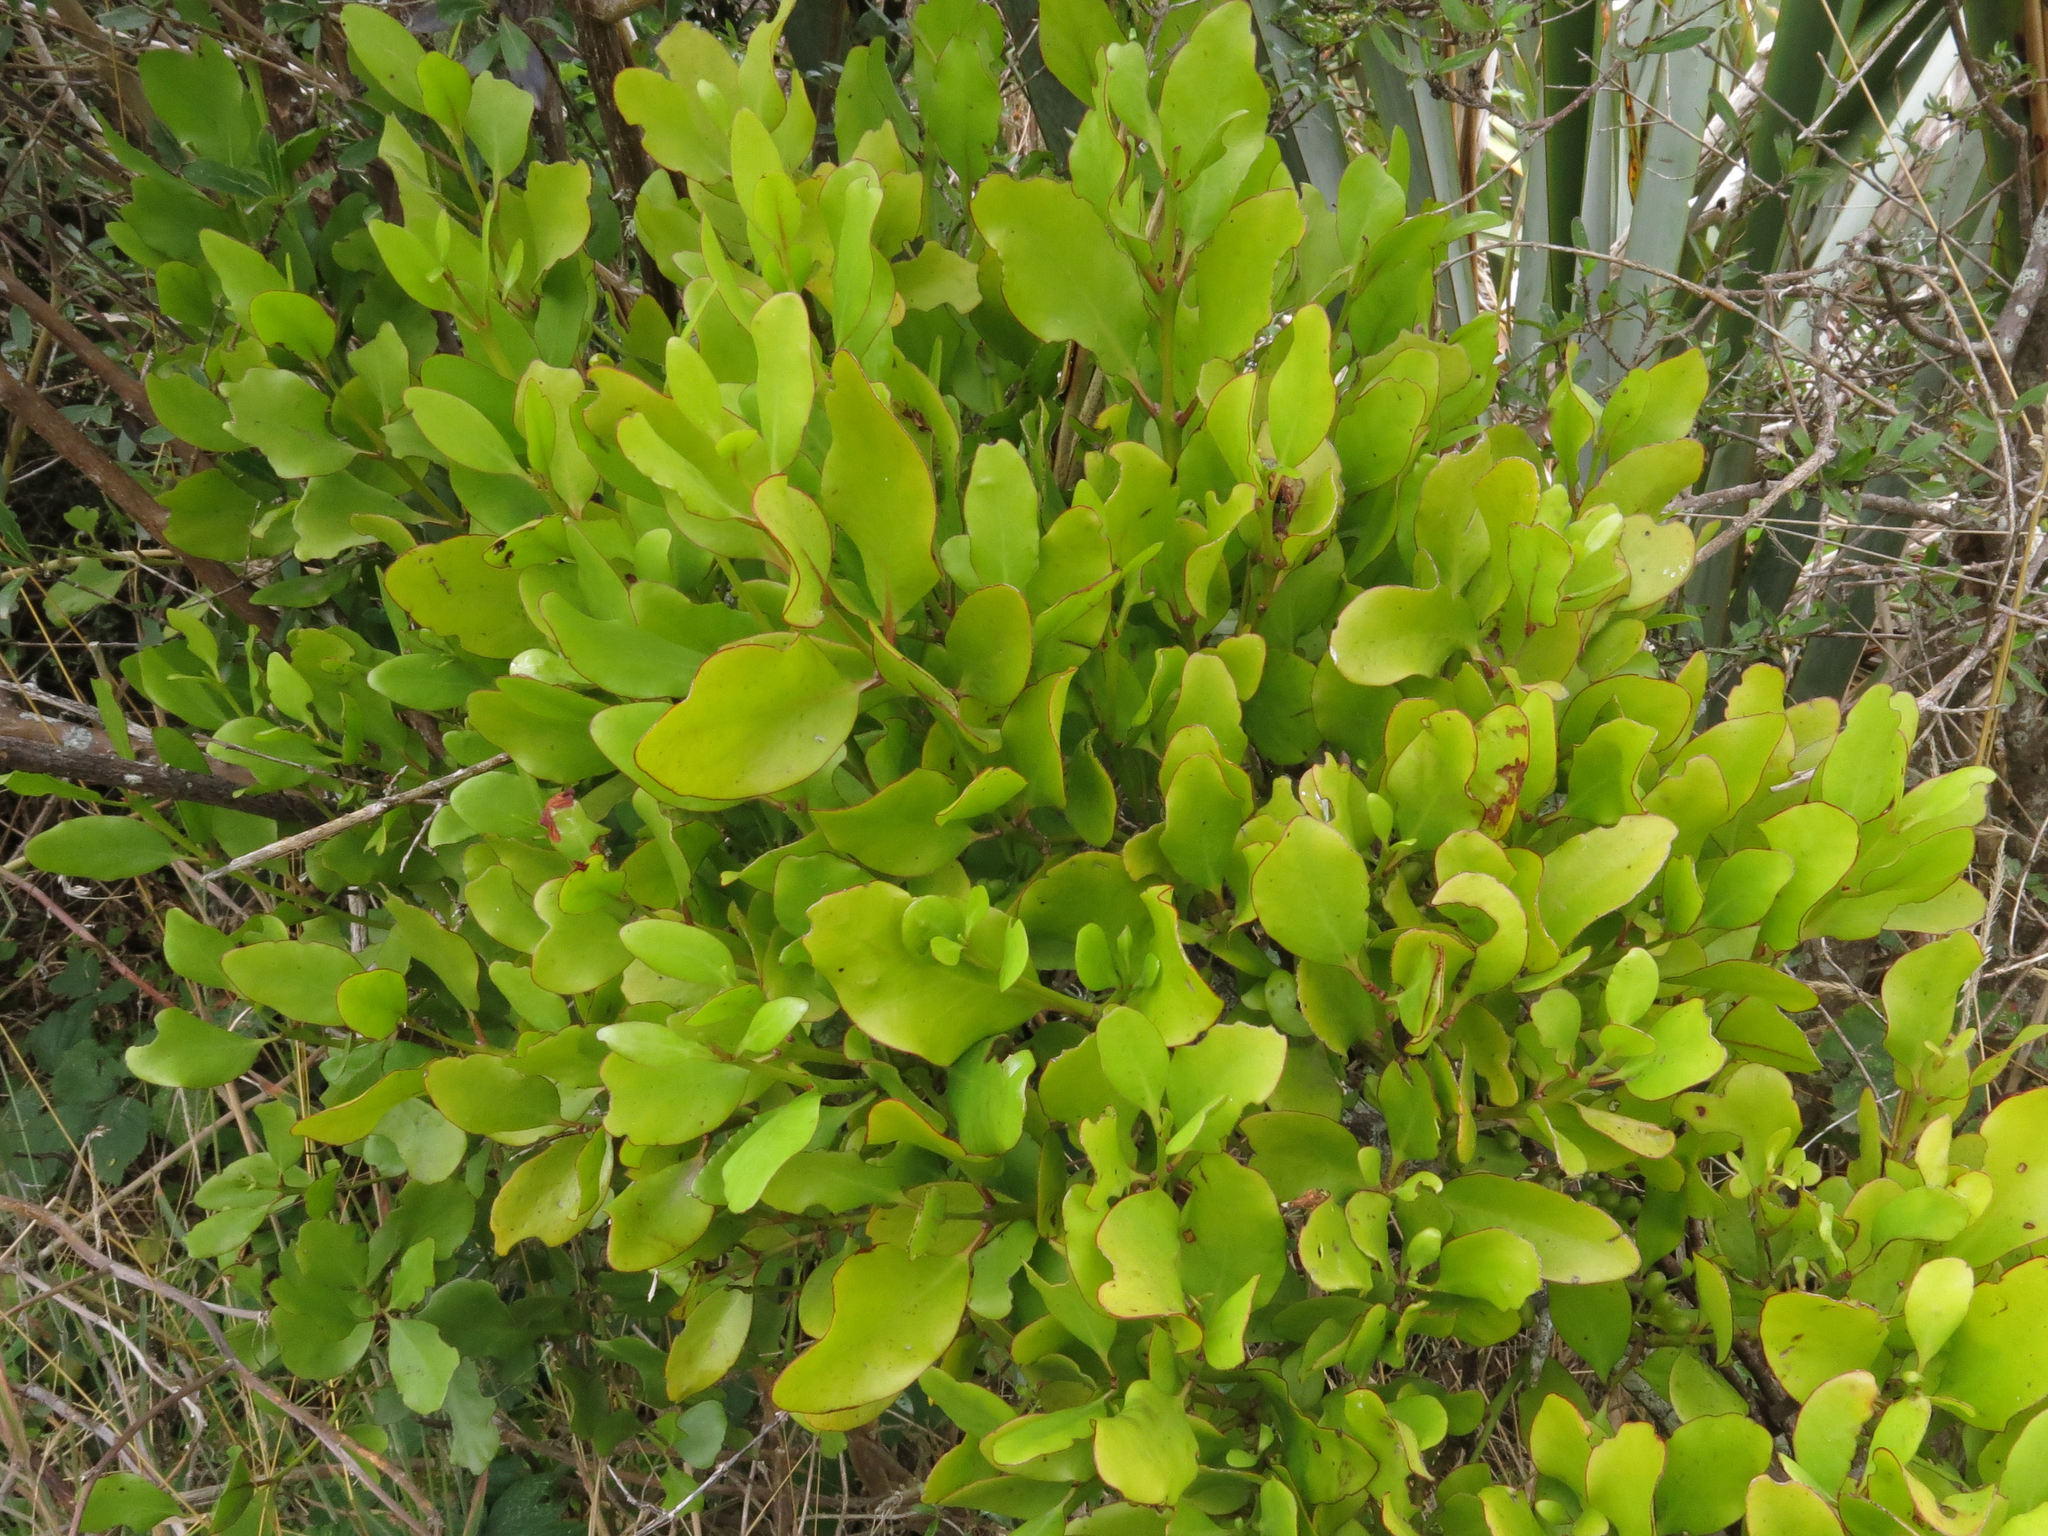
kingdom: Plantae
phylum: Tracheophyta
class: Magnoliopsida
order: Santalales
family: Loranthaceae
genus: Ileostylus
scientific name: Ileostylus micranthus
